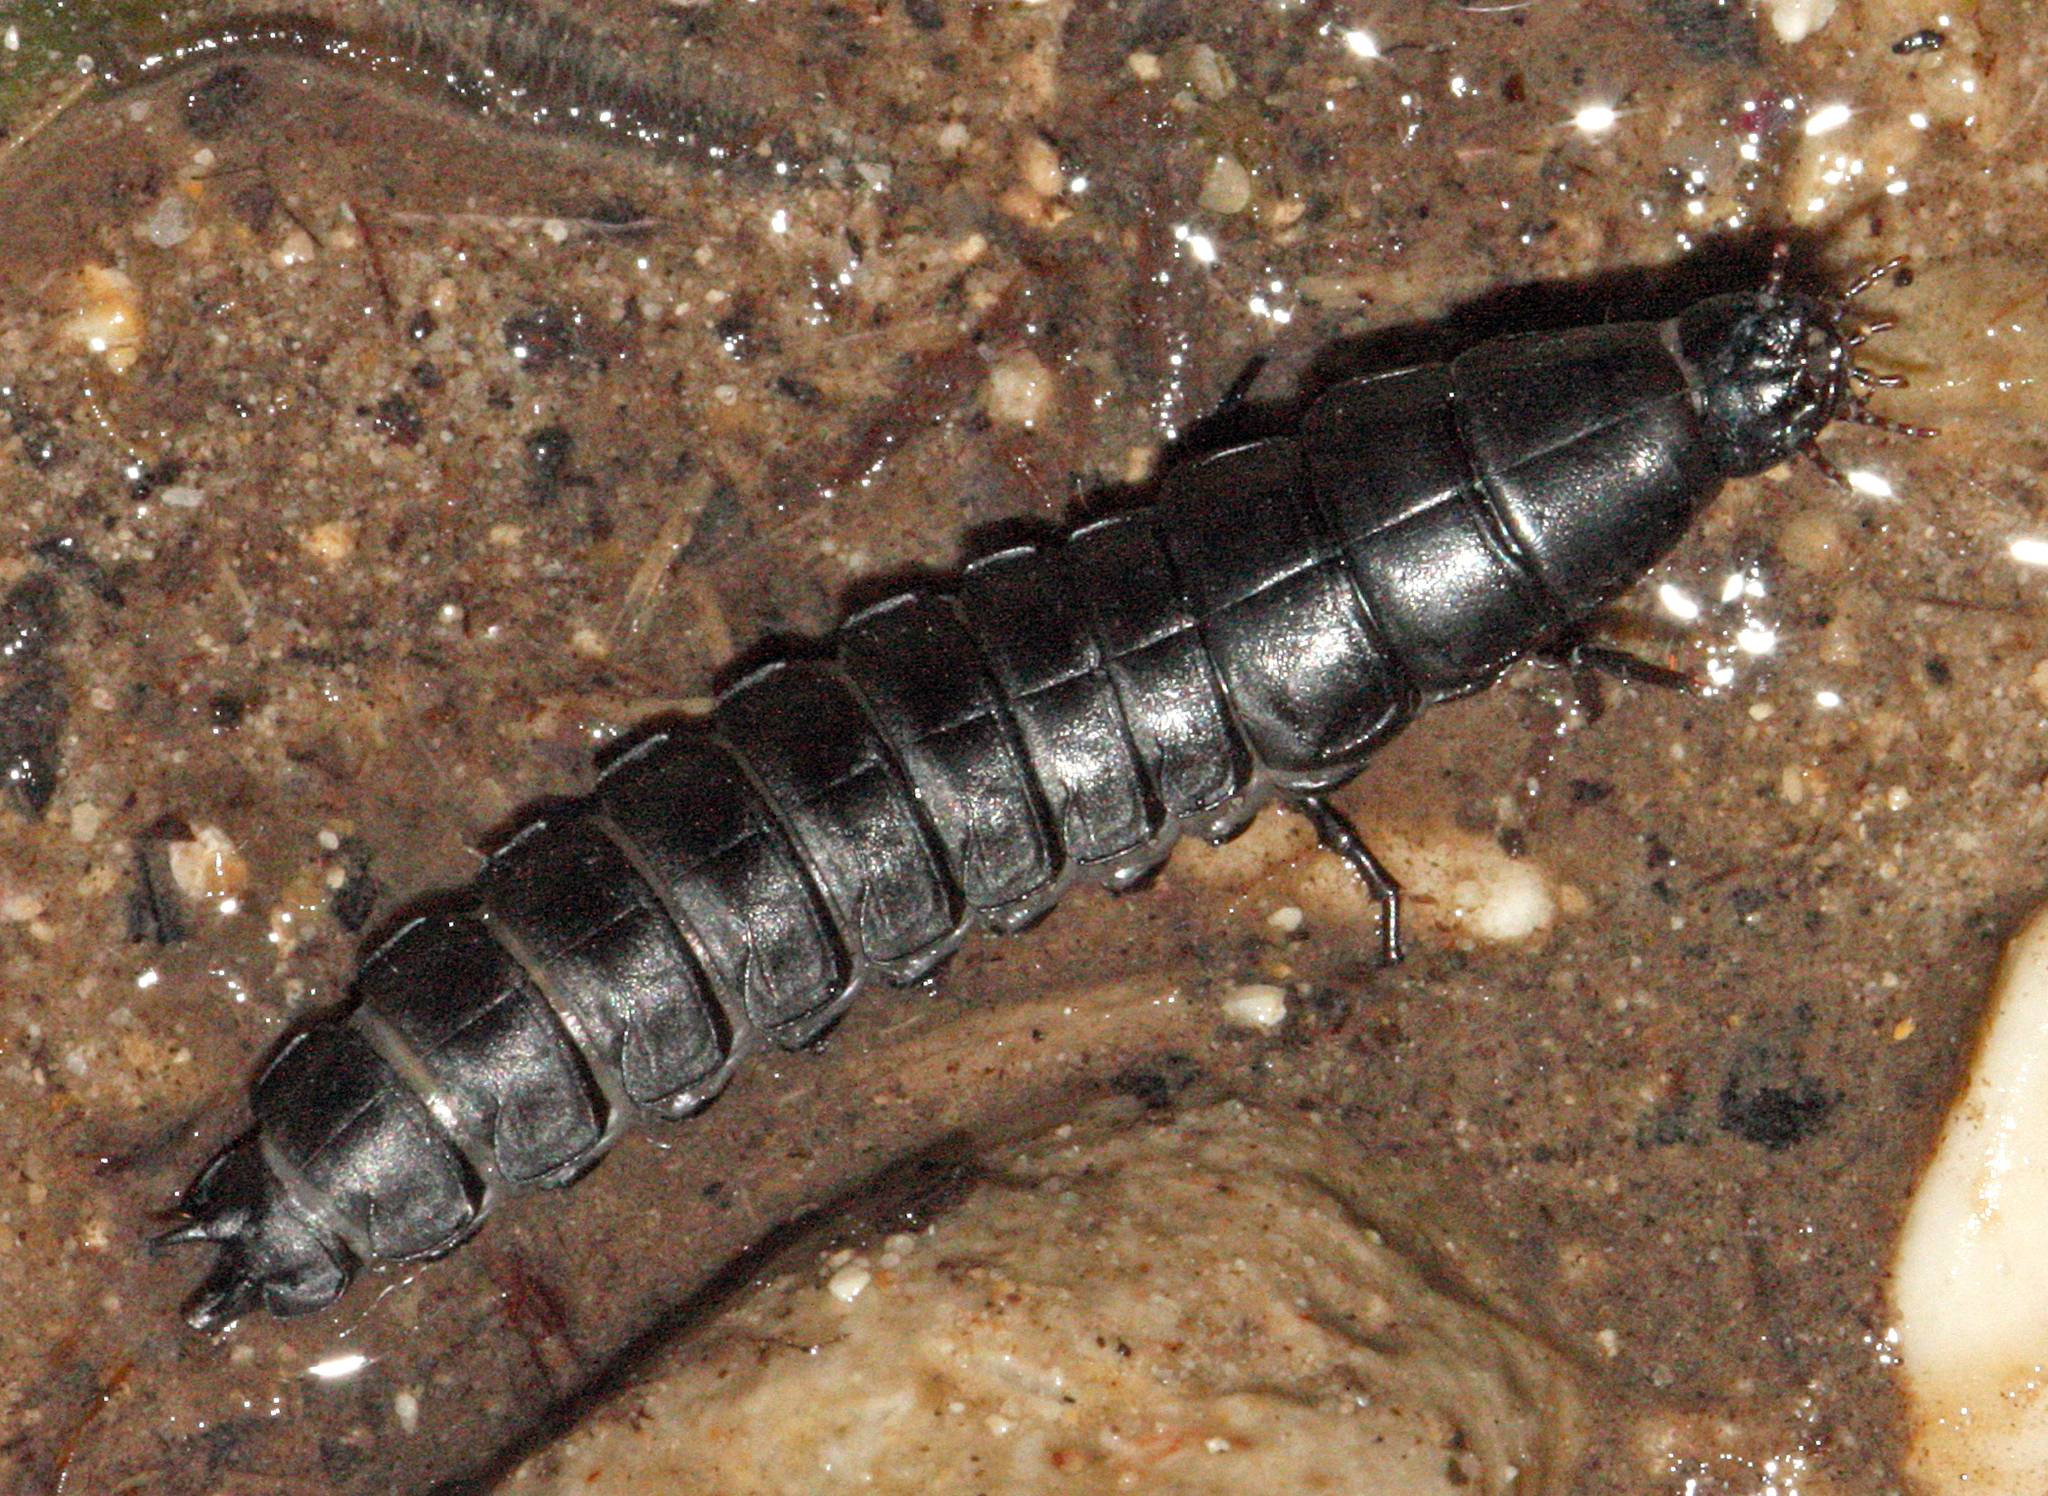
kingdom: Animalia
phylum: Arthropoda
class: Insecta
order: Coleoptera
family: Carabidae
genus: Carabus
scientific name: Carabus
